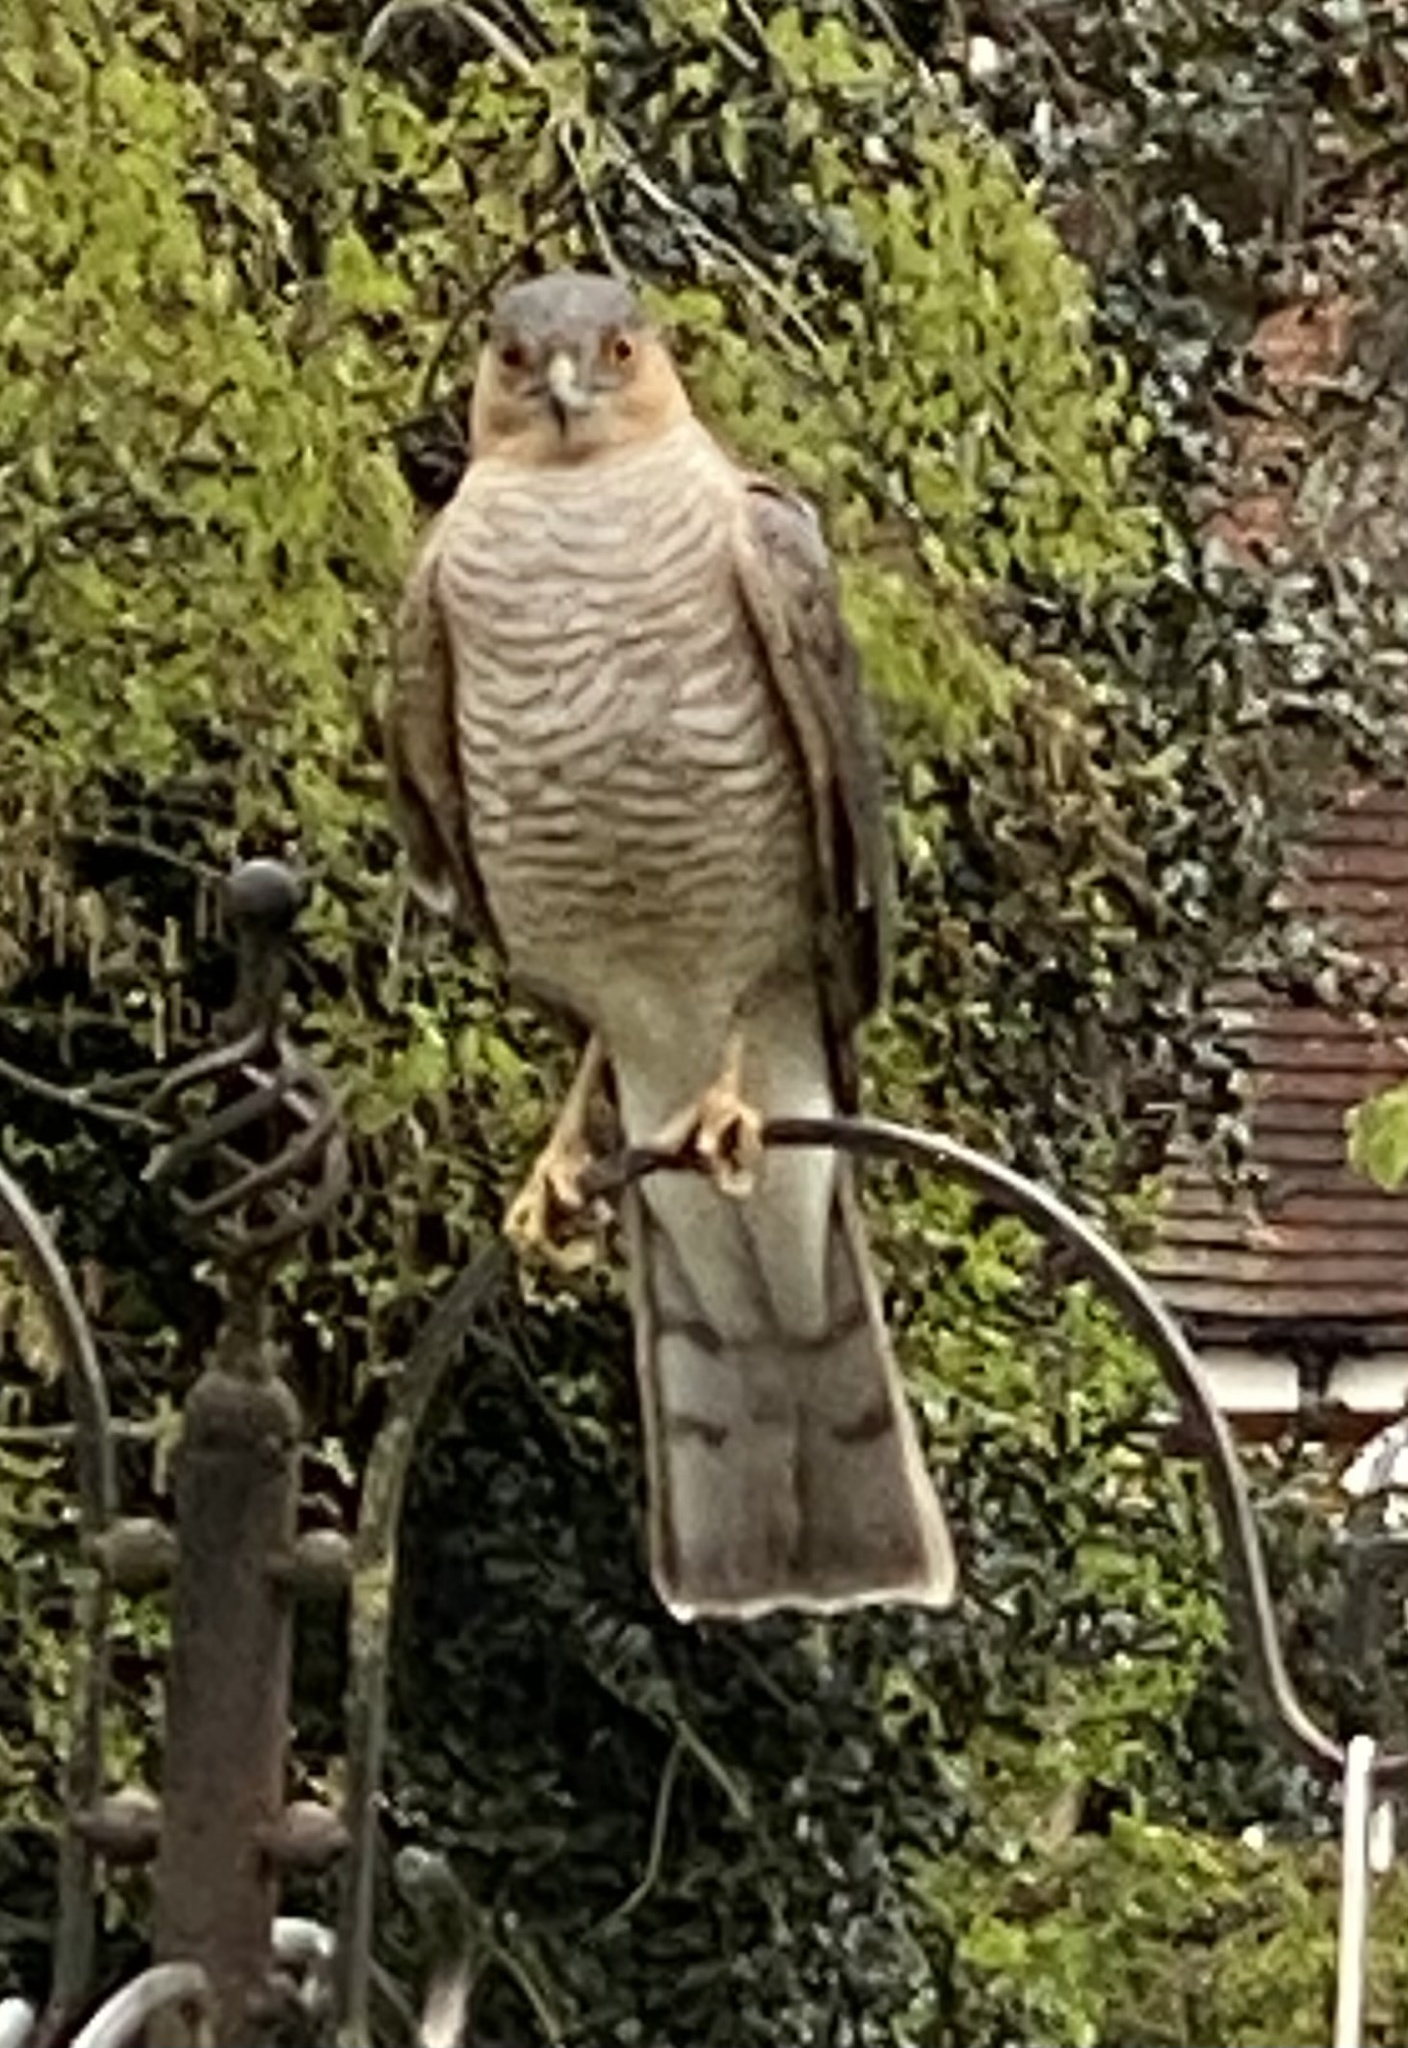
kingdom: Animalia
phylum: Chordata
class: Aves
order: Accipitriformes
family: Accipitridae
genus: Accipiter
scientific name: Accipiter nisus
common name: Eurasian sparrowhawk
